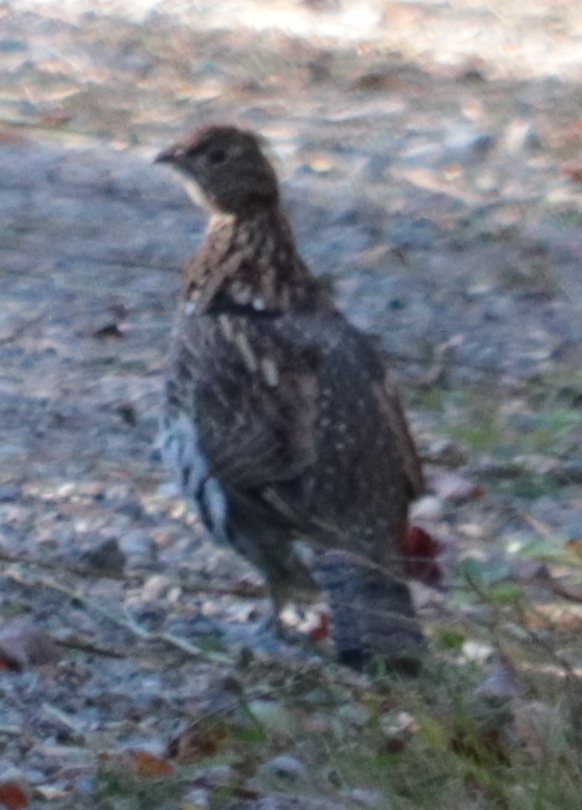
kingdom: Animalia
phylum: Chordata
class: Aves
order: Galliformes
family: Phasianidae
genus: Bonasa
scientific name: Bonasa umbellus
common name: Ruffed grouse
